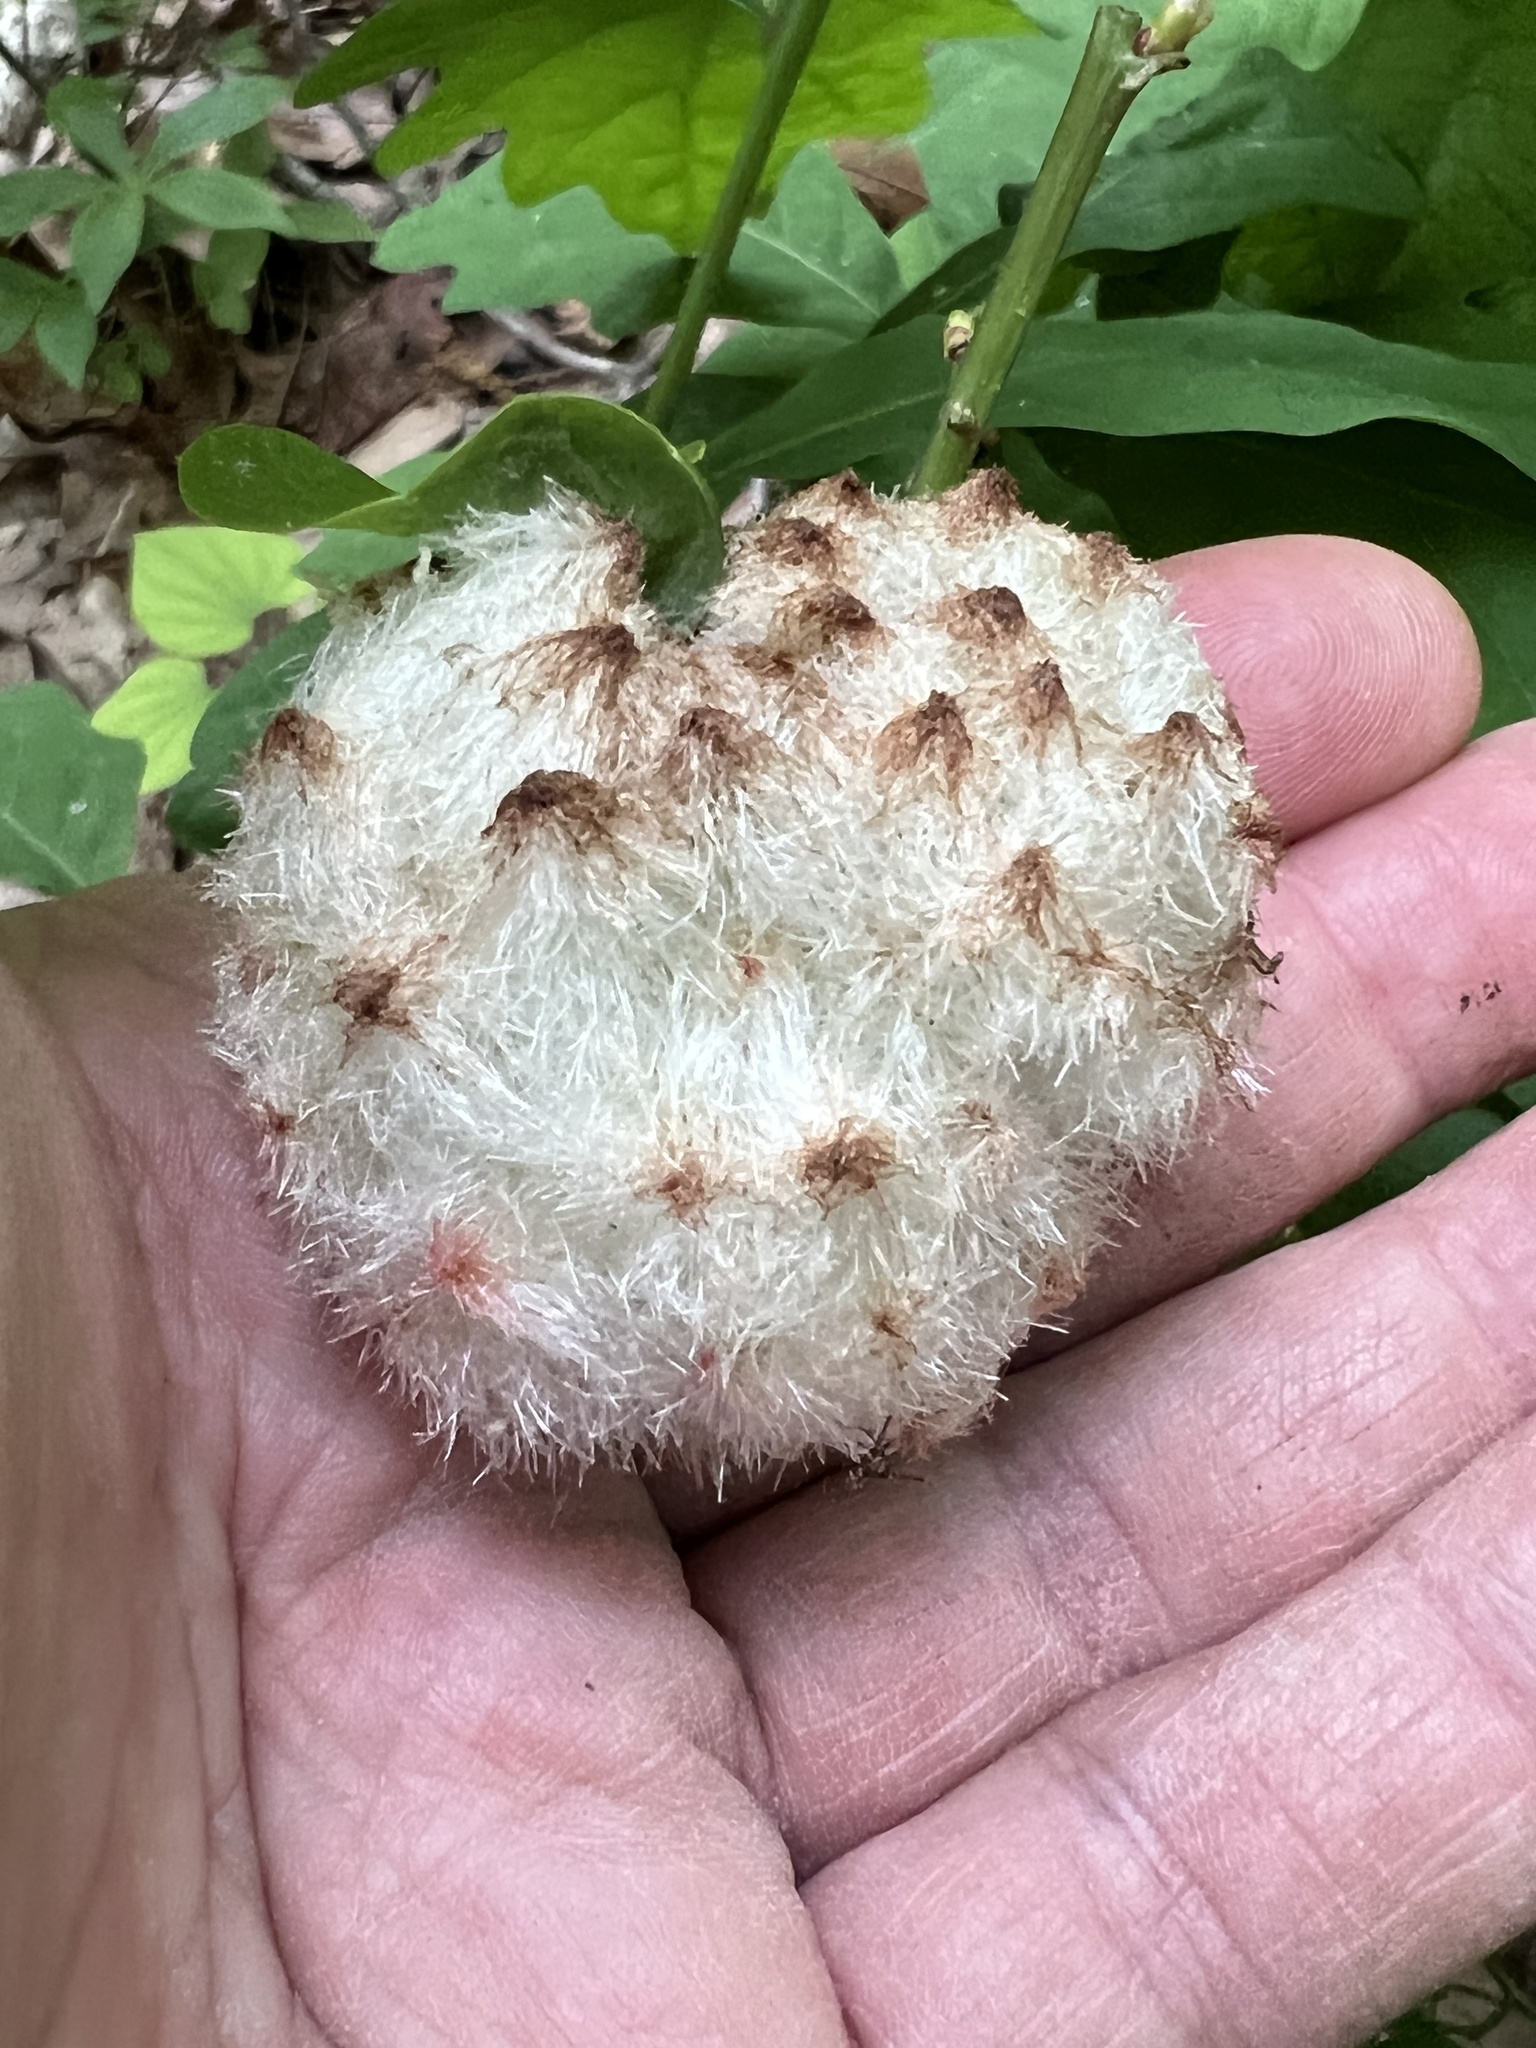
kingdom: Animalia
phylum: Arthropoda
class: Insecta
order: Hymenoptera
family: Cynipidae
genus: Callirhytis
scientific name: Callirhytis
